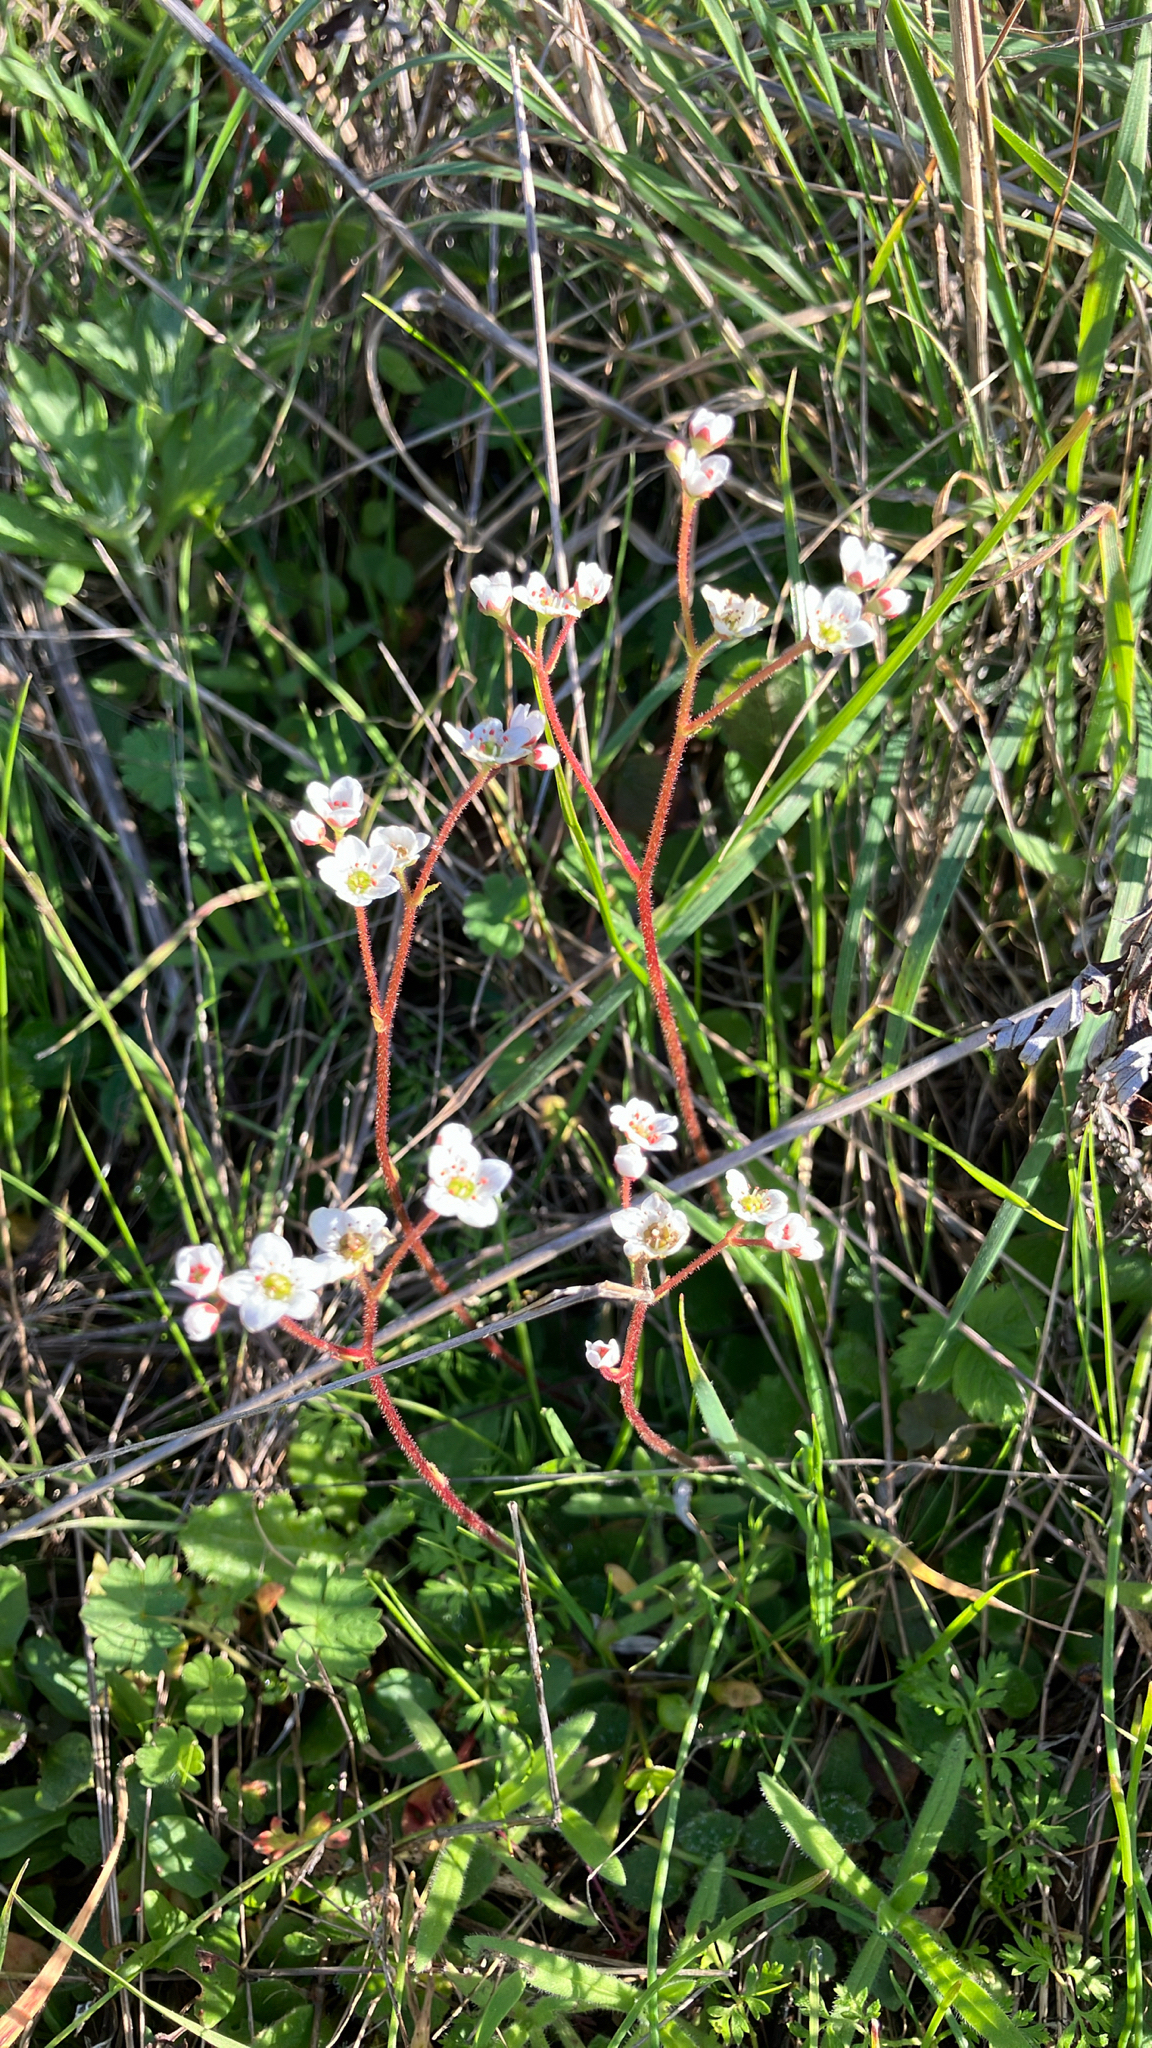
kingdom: Plantae
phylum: Tracheophyta
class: Magnoliopsida
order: Saxifragales
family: Saxifragaceae
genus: Micranthes
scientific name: Micranthes californica
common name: California saxifrage
